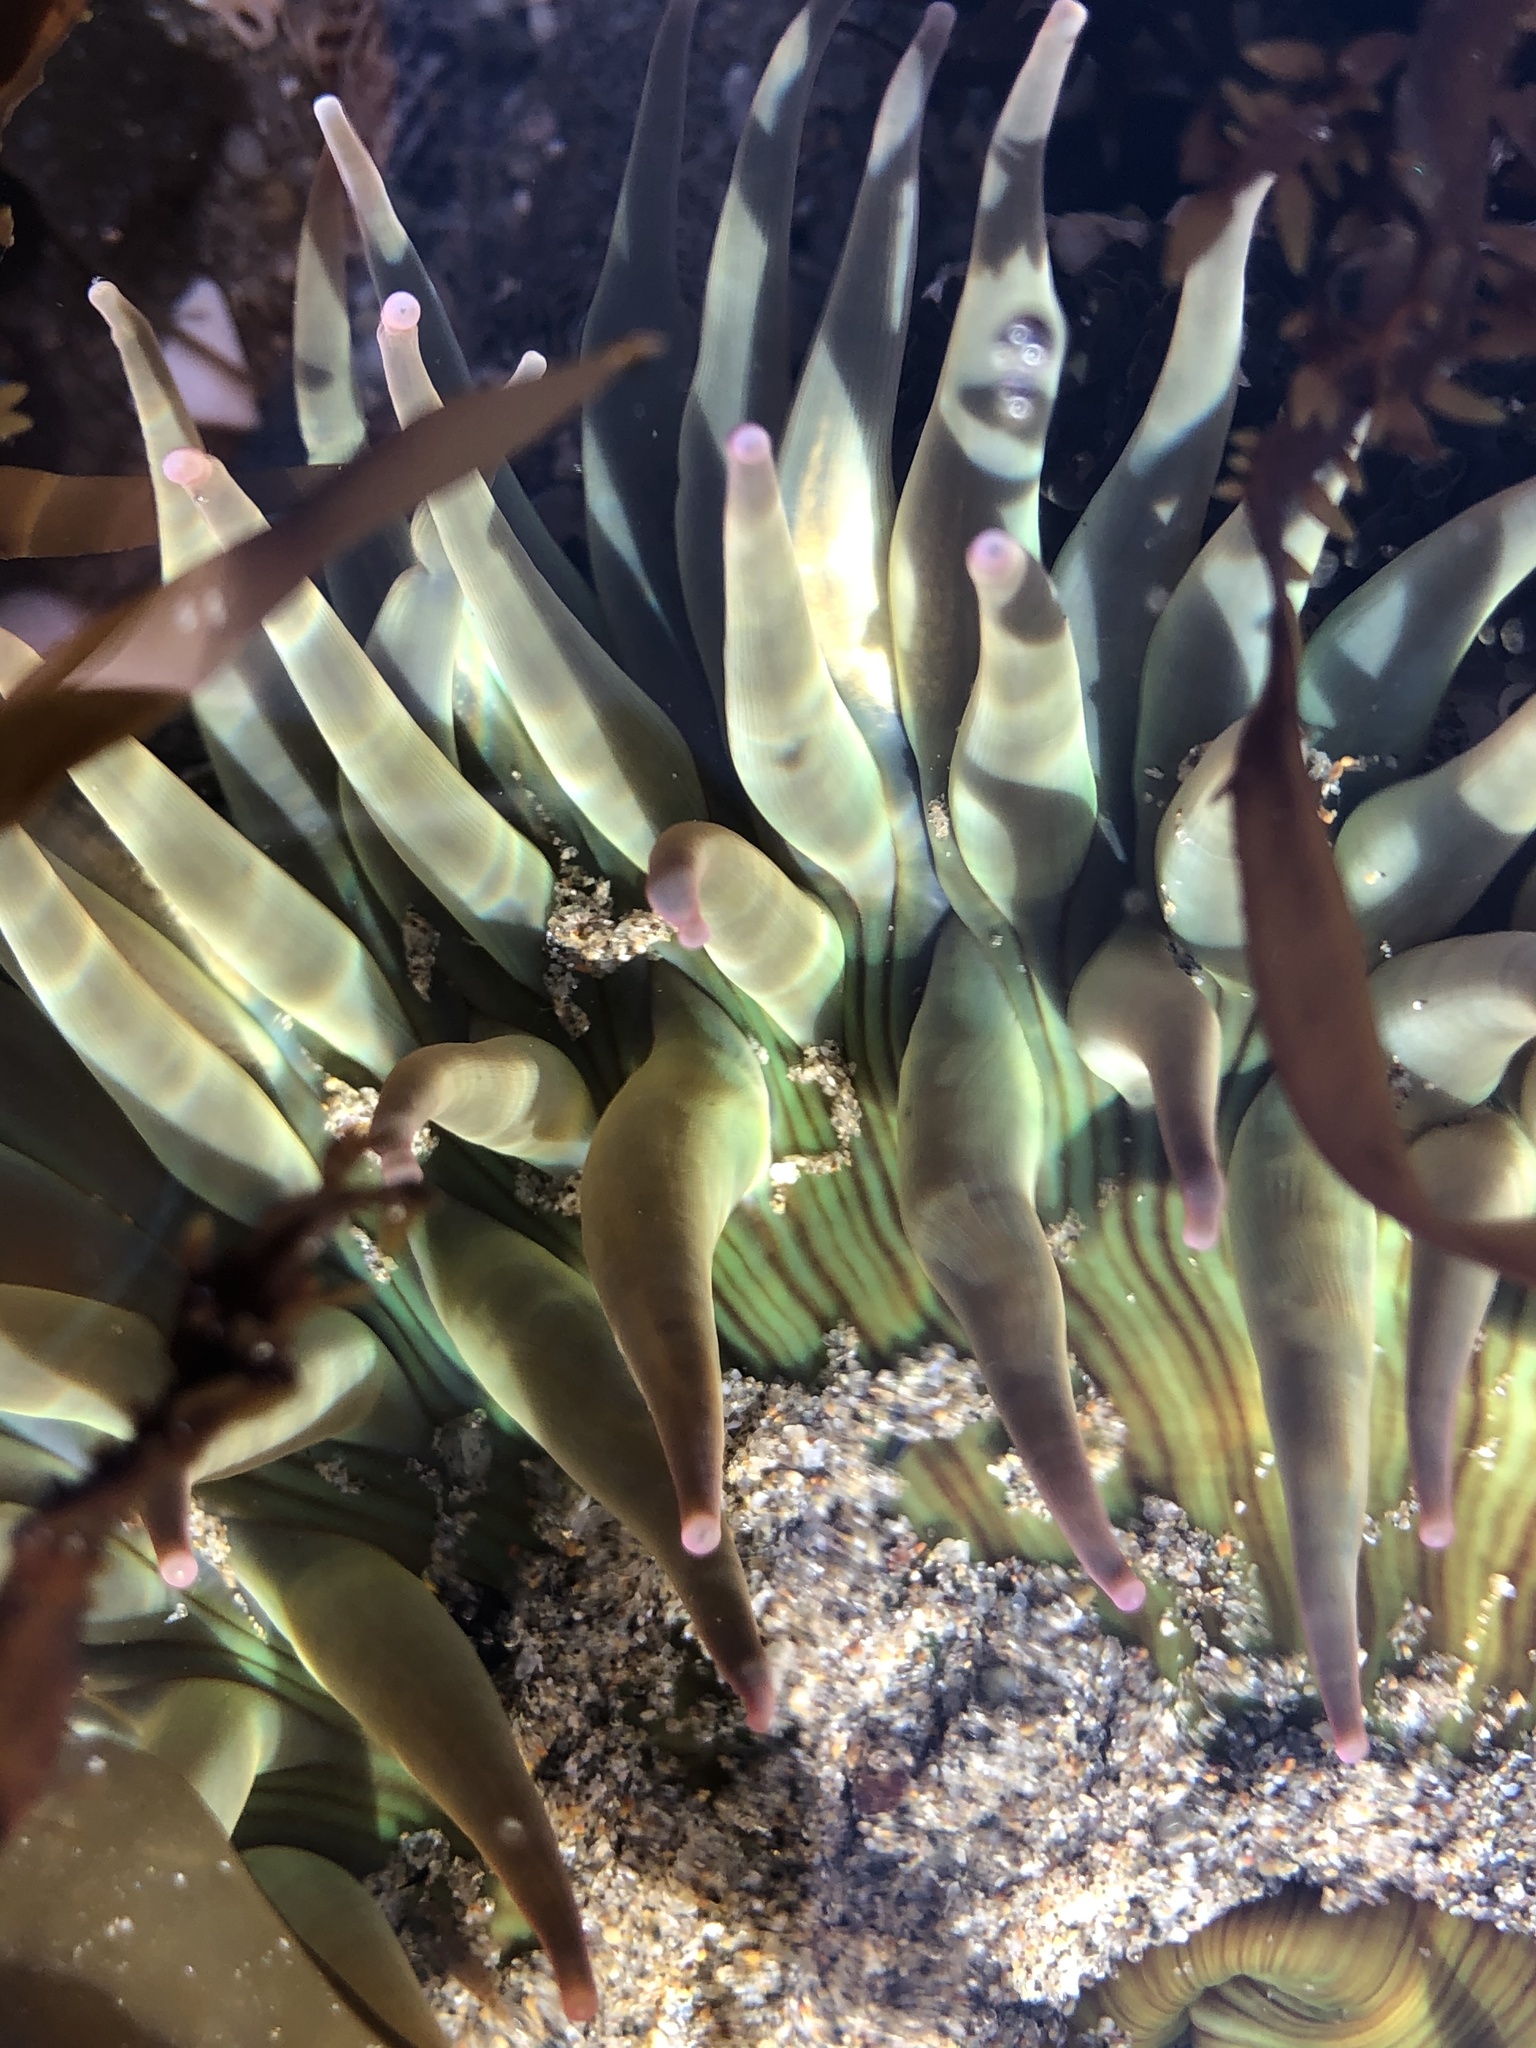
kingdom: Animalia
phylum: Cnidaria
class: Anthozoa
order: Actiniaria
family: Actiniidae
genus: Anthopleura
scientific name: Anthopleura sola
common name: Sun anemone
